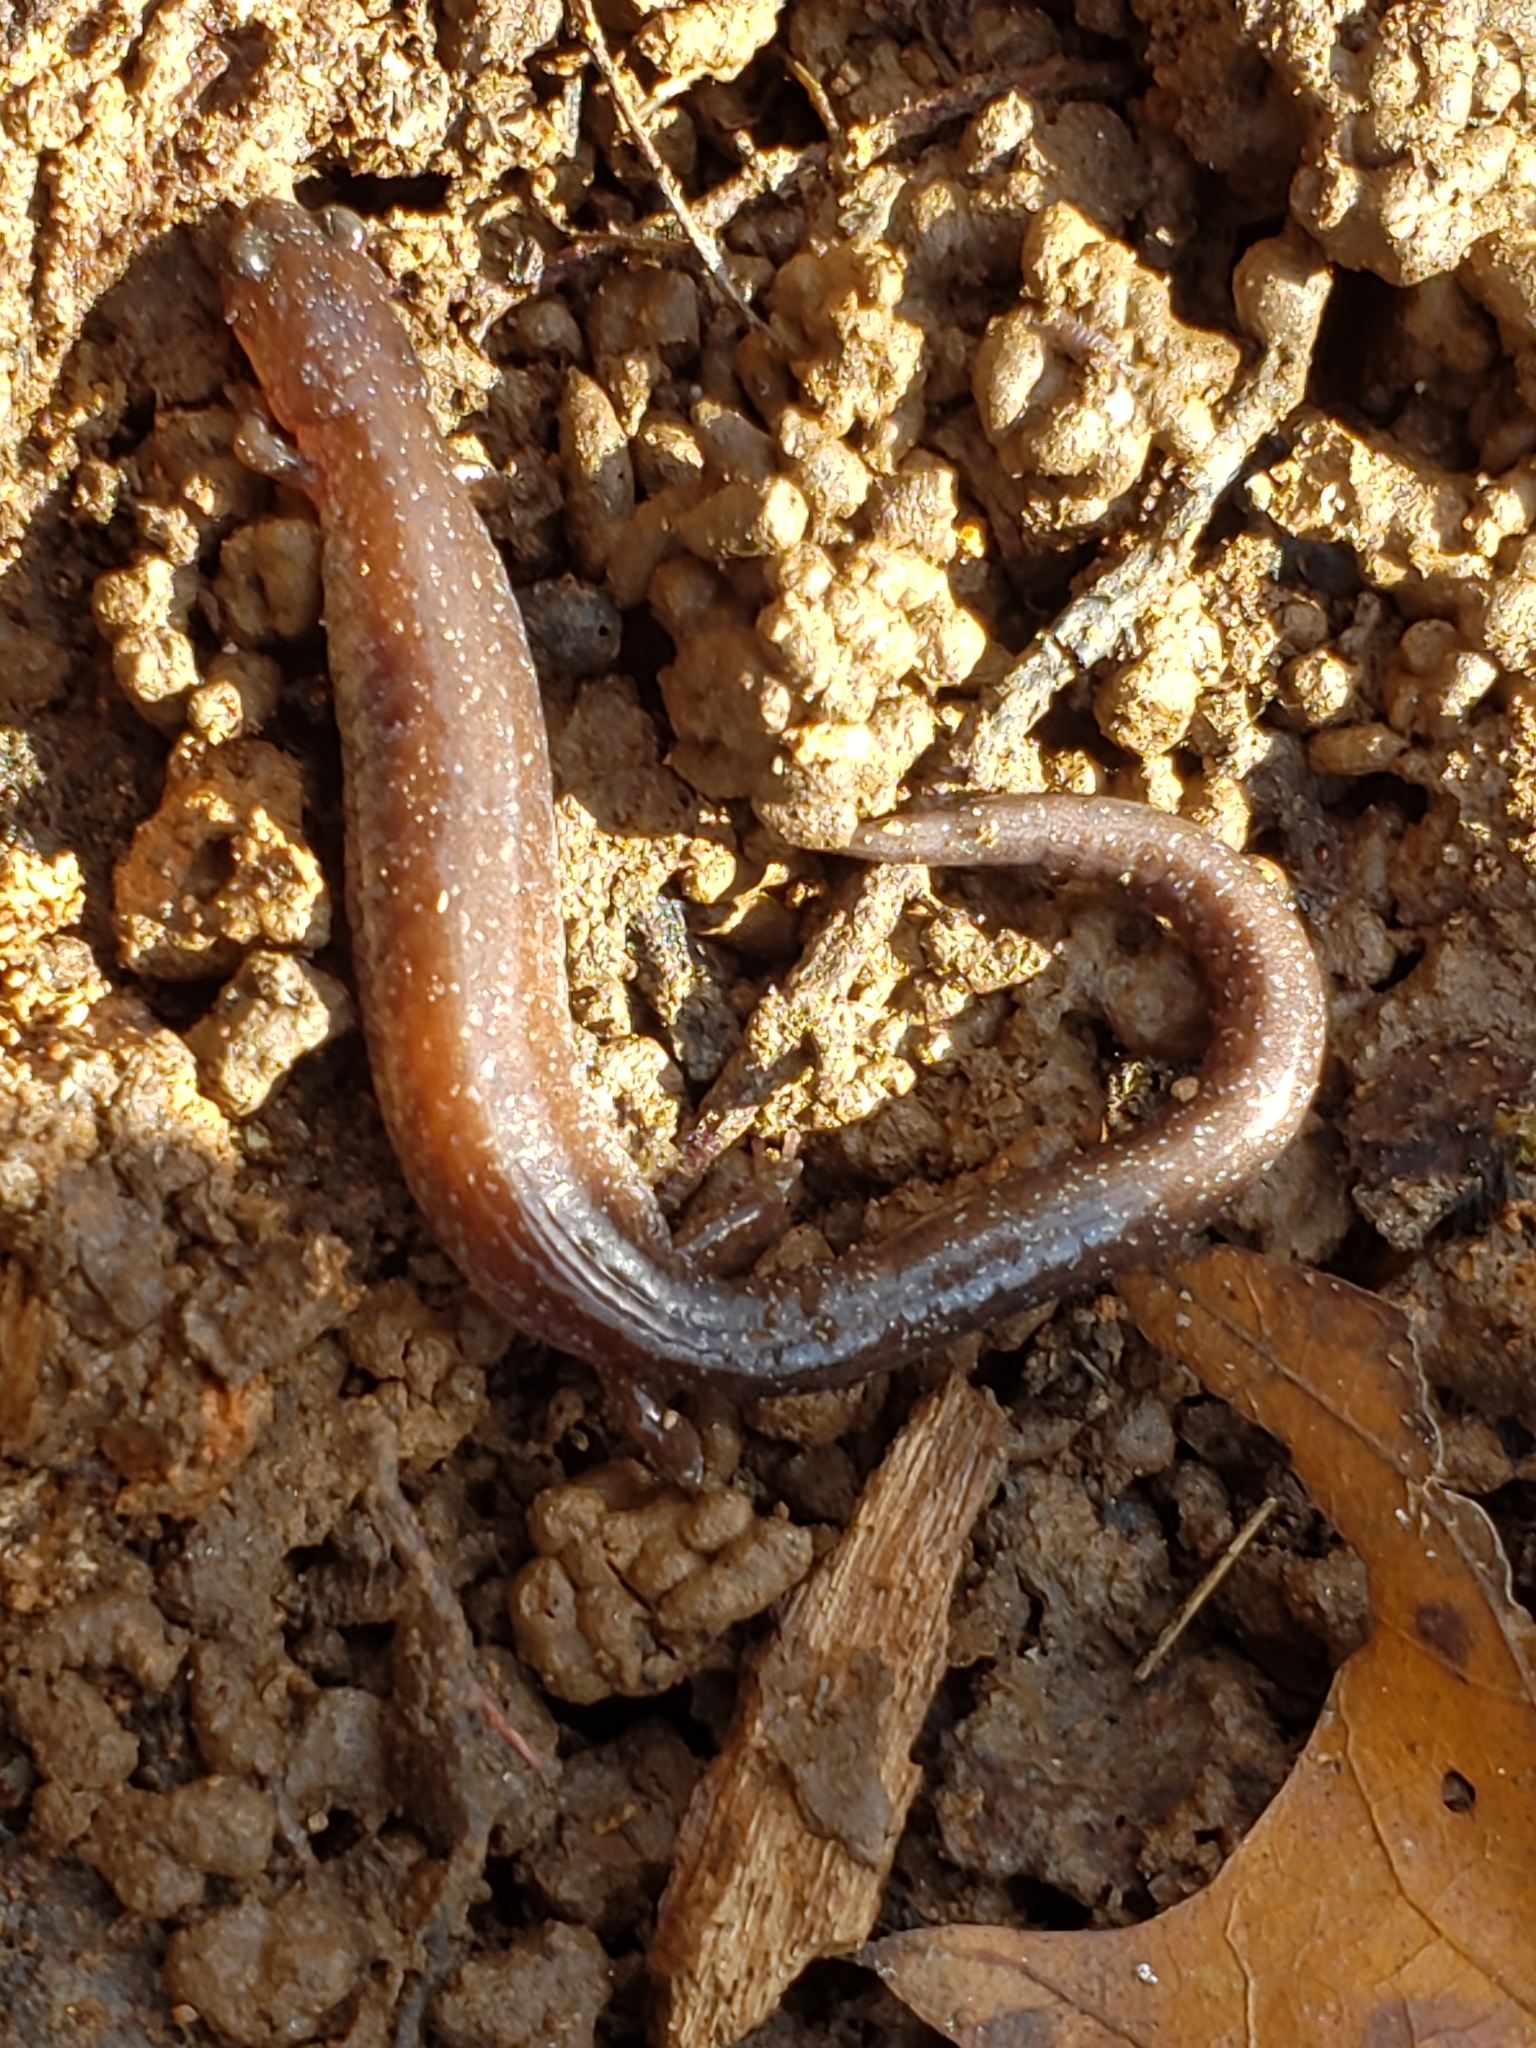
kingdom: Animalia
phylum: Chordata
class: Amphibia
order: Caudata
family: Plethodontidae
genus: Plethodon
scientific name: Plethodon cinereus
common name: Redback salamander
